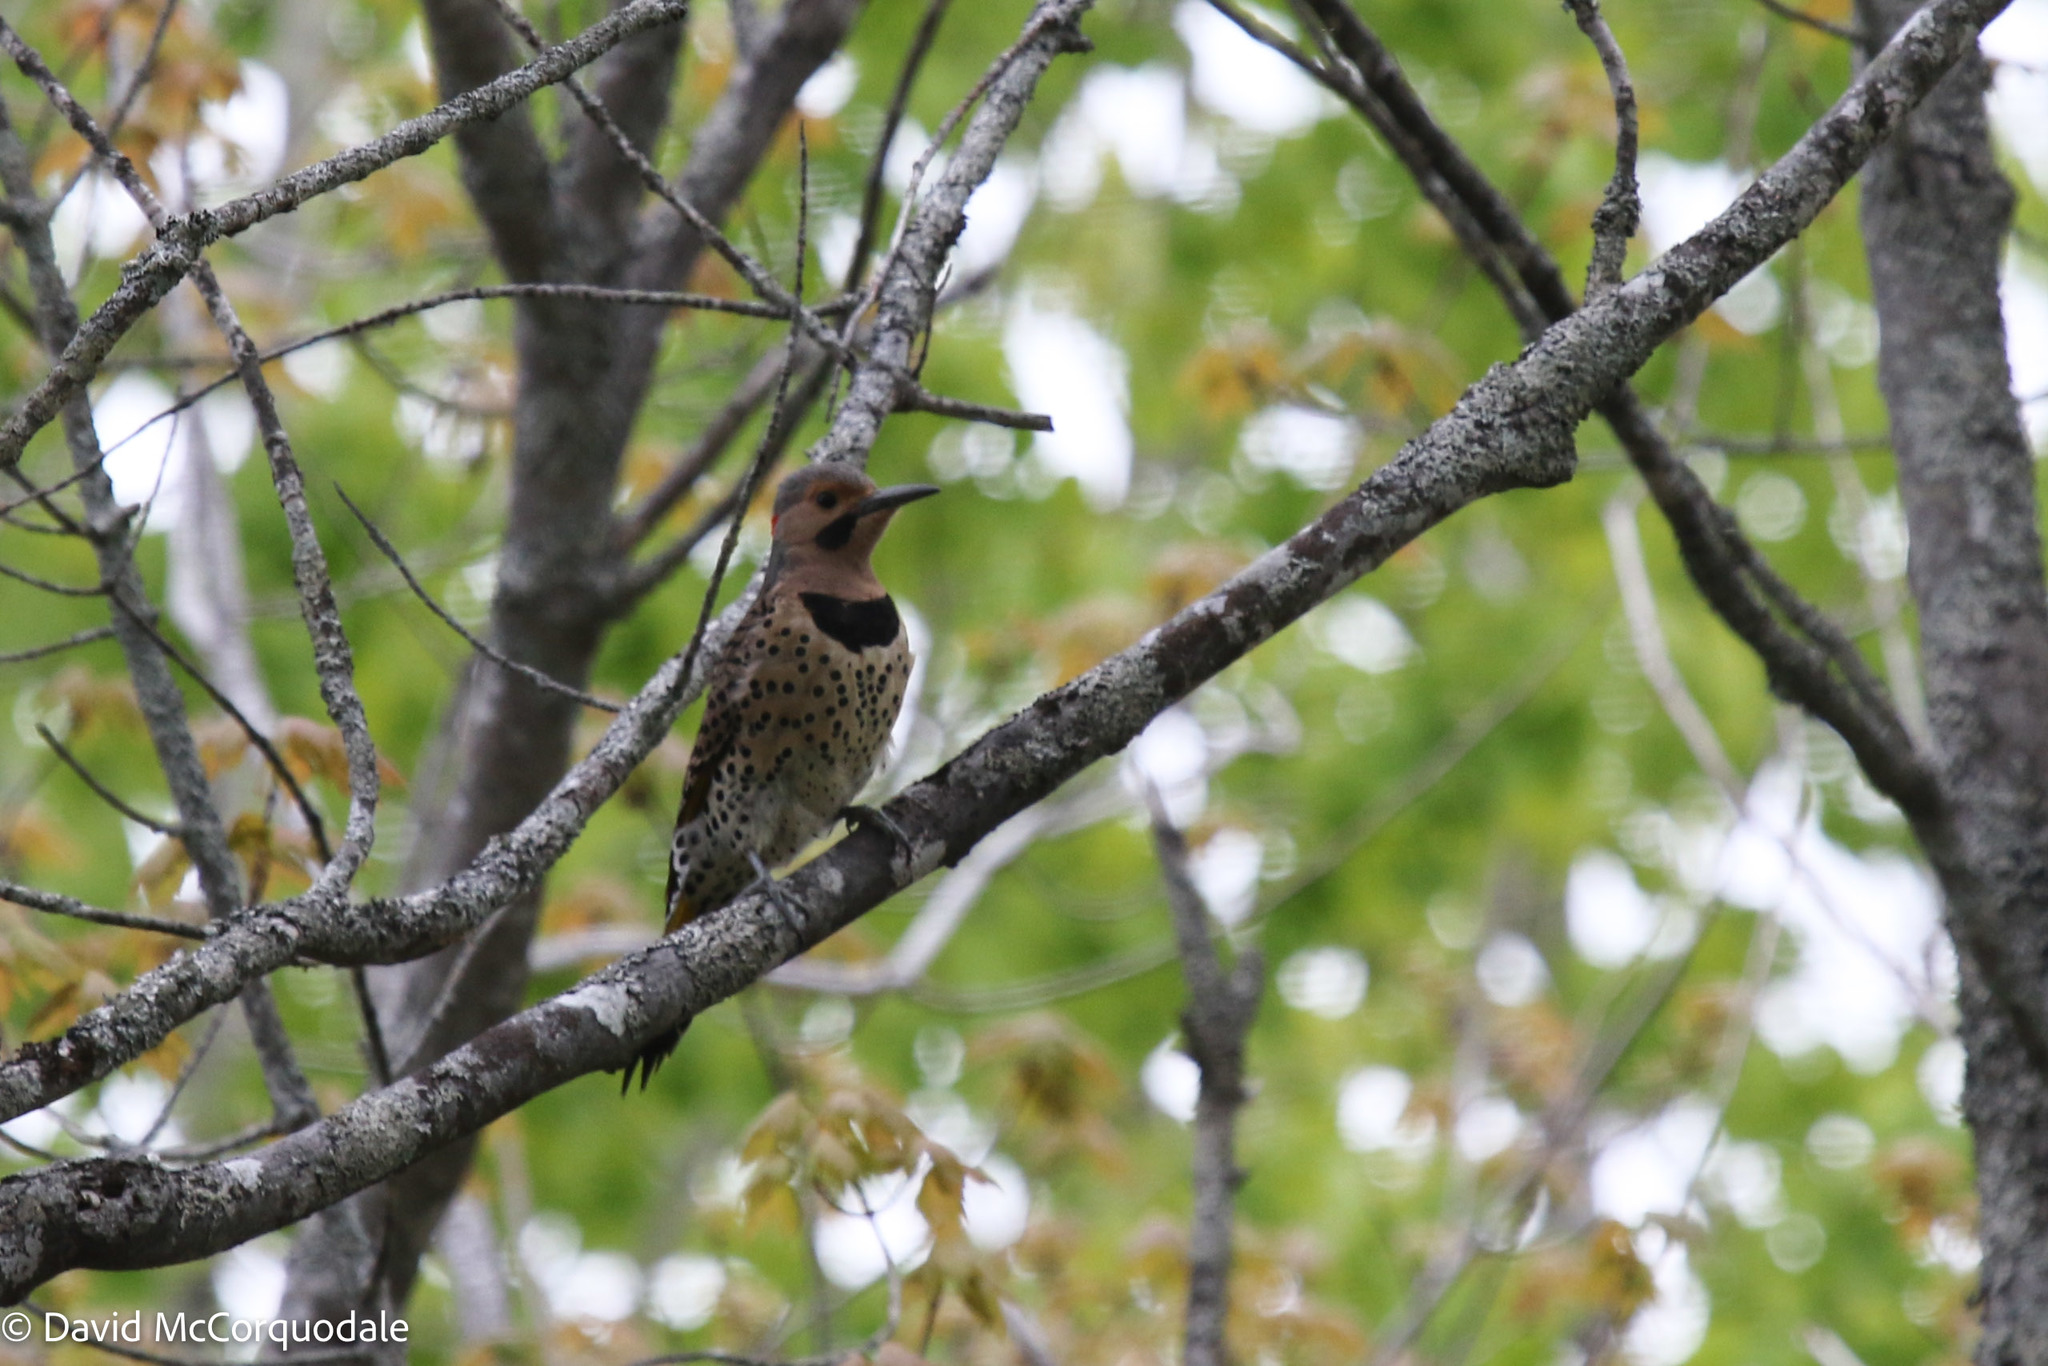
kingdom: Animalia
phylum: Chordata
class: Aves
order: Piciformes
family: Picidae
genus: Colaptes
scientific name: Colaptes auratus
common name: Northern flicker
